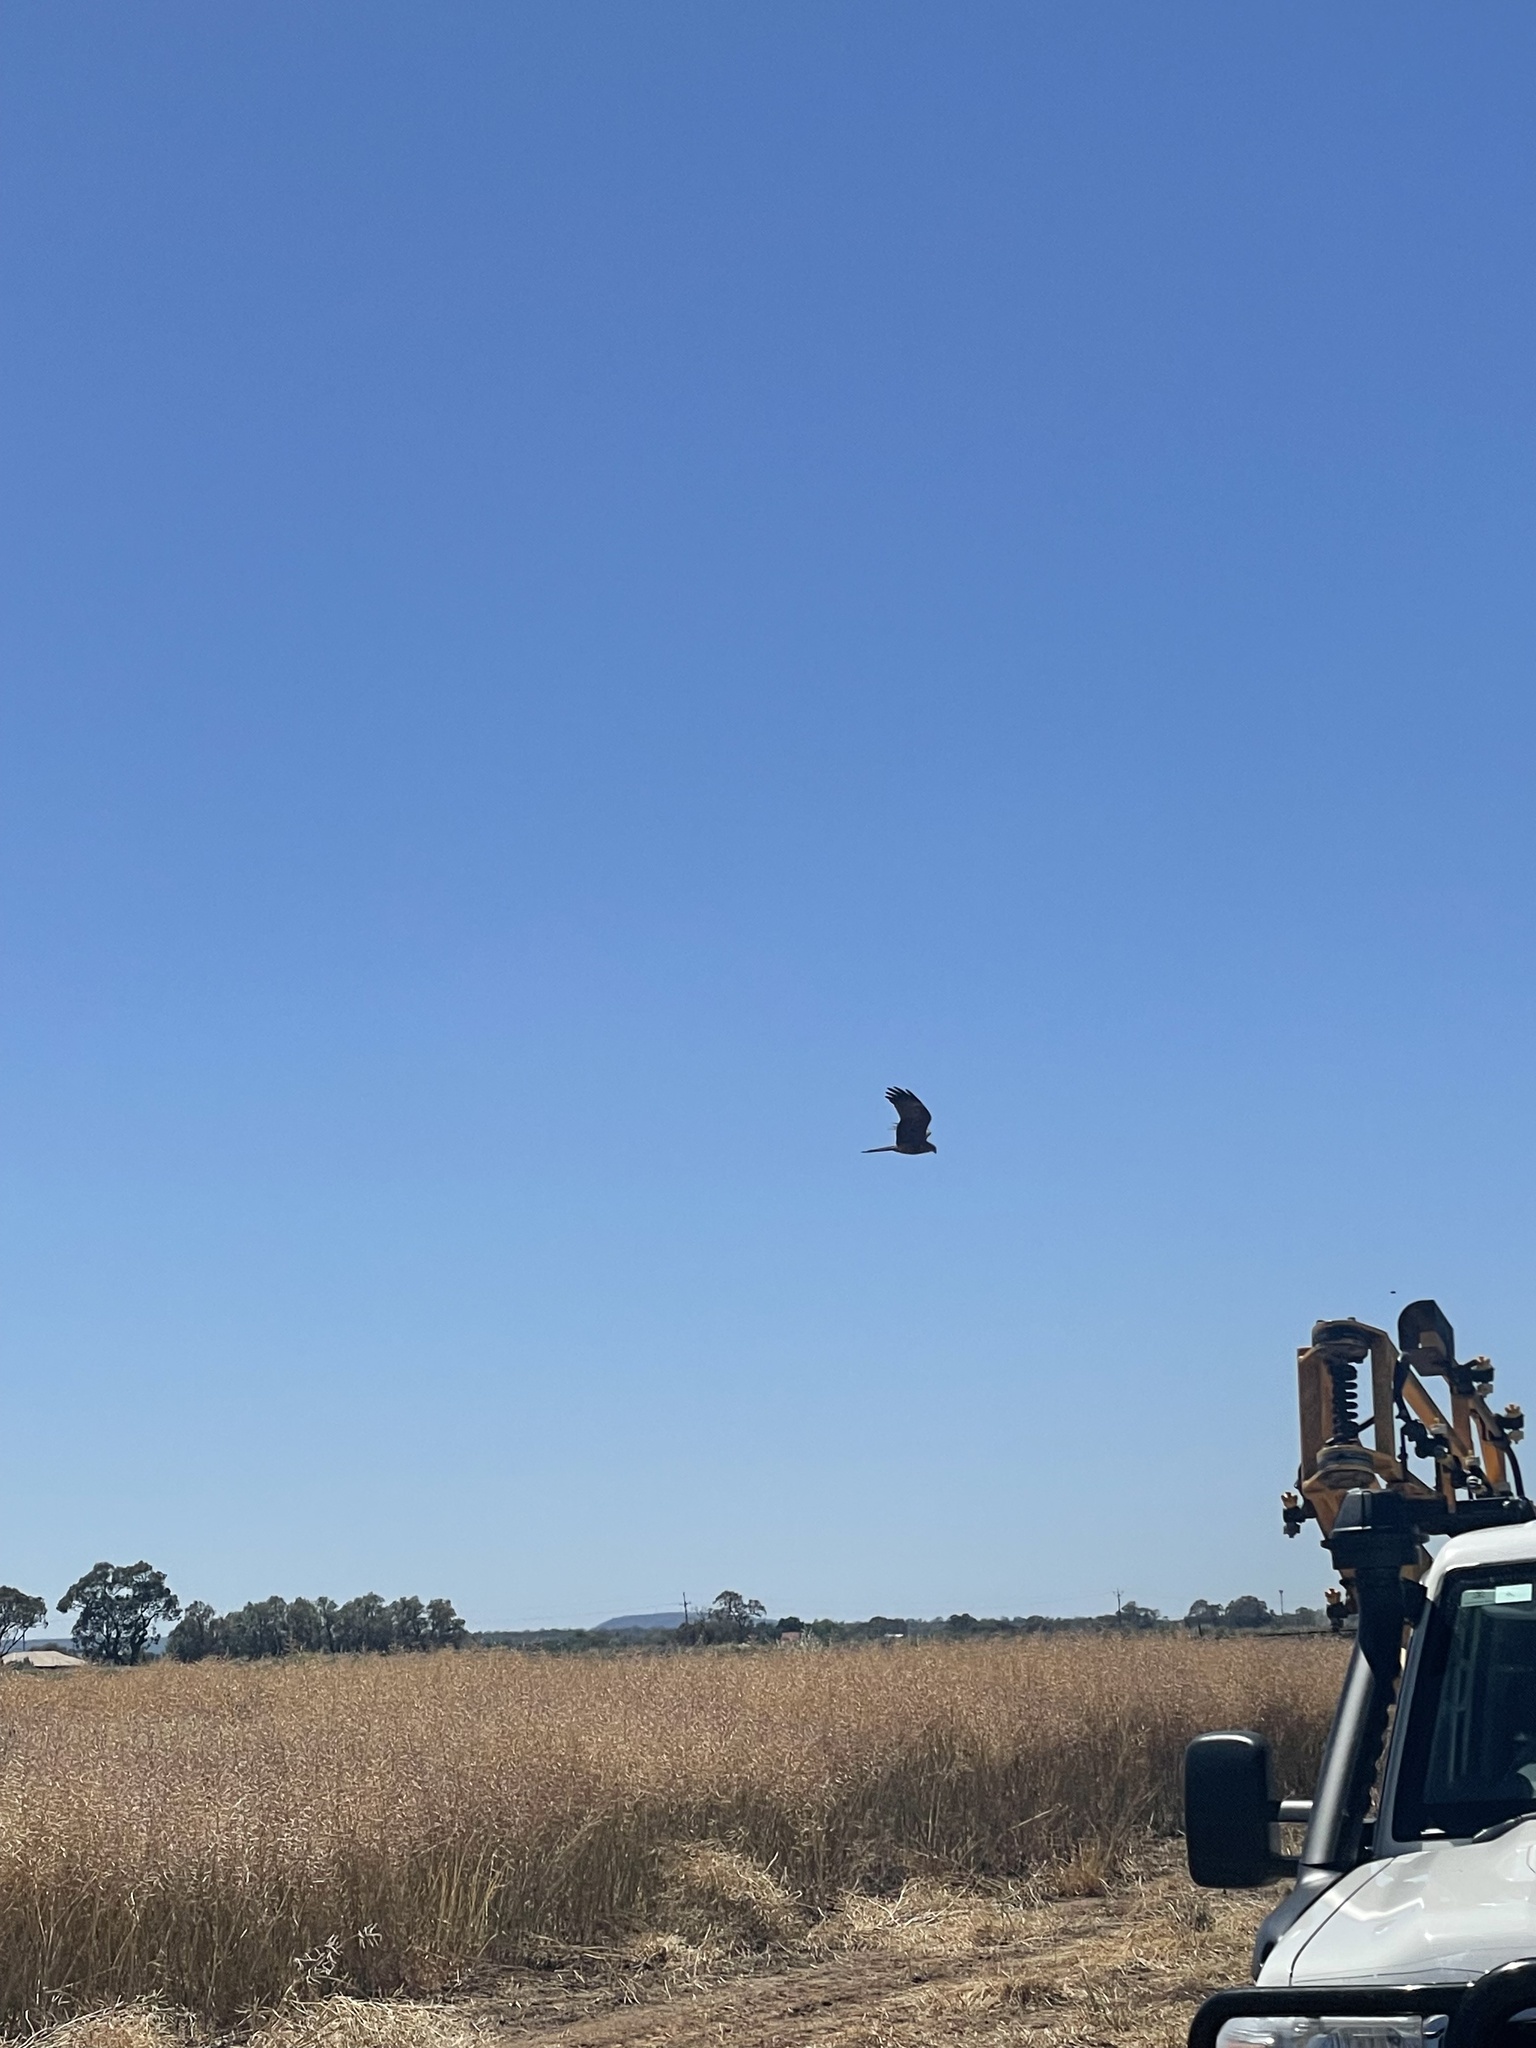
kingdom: Animalia
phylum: Chordata
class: Aves
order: Accipitriformes
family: Accipitridae
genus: Milvus
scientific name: Milvus migrans
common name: Black kite
